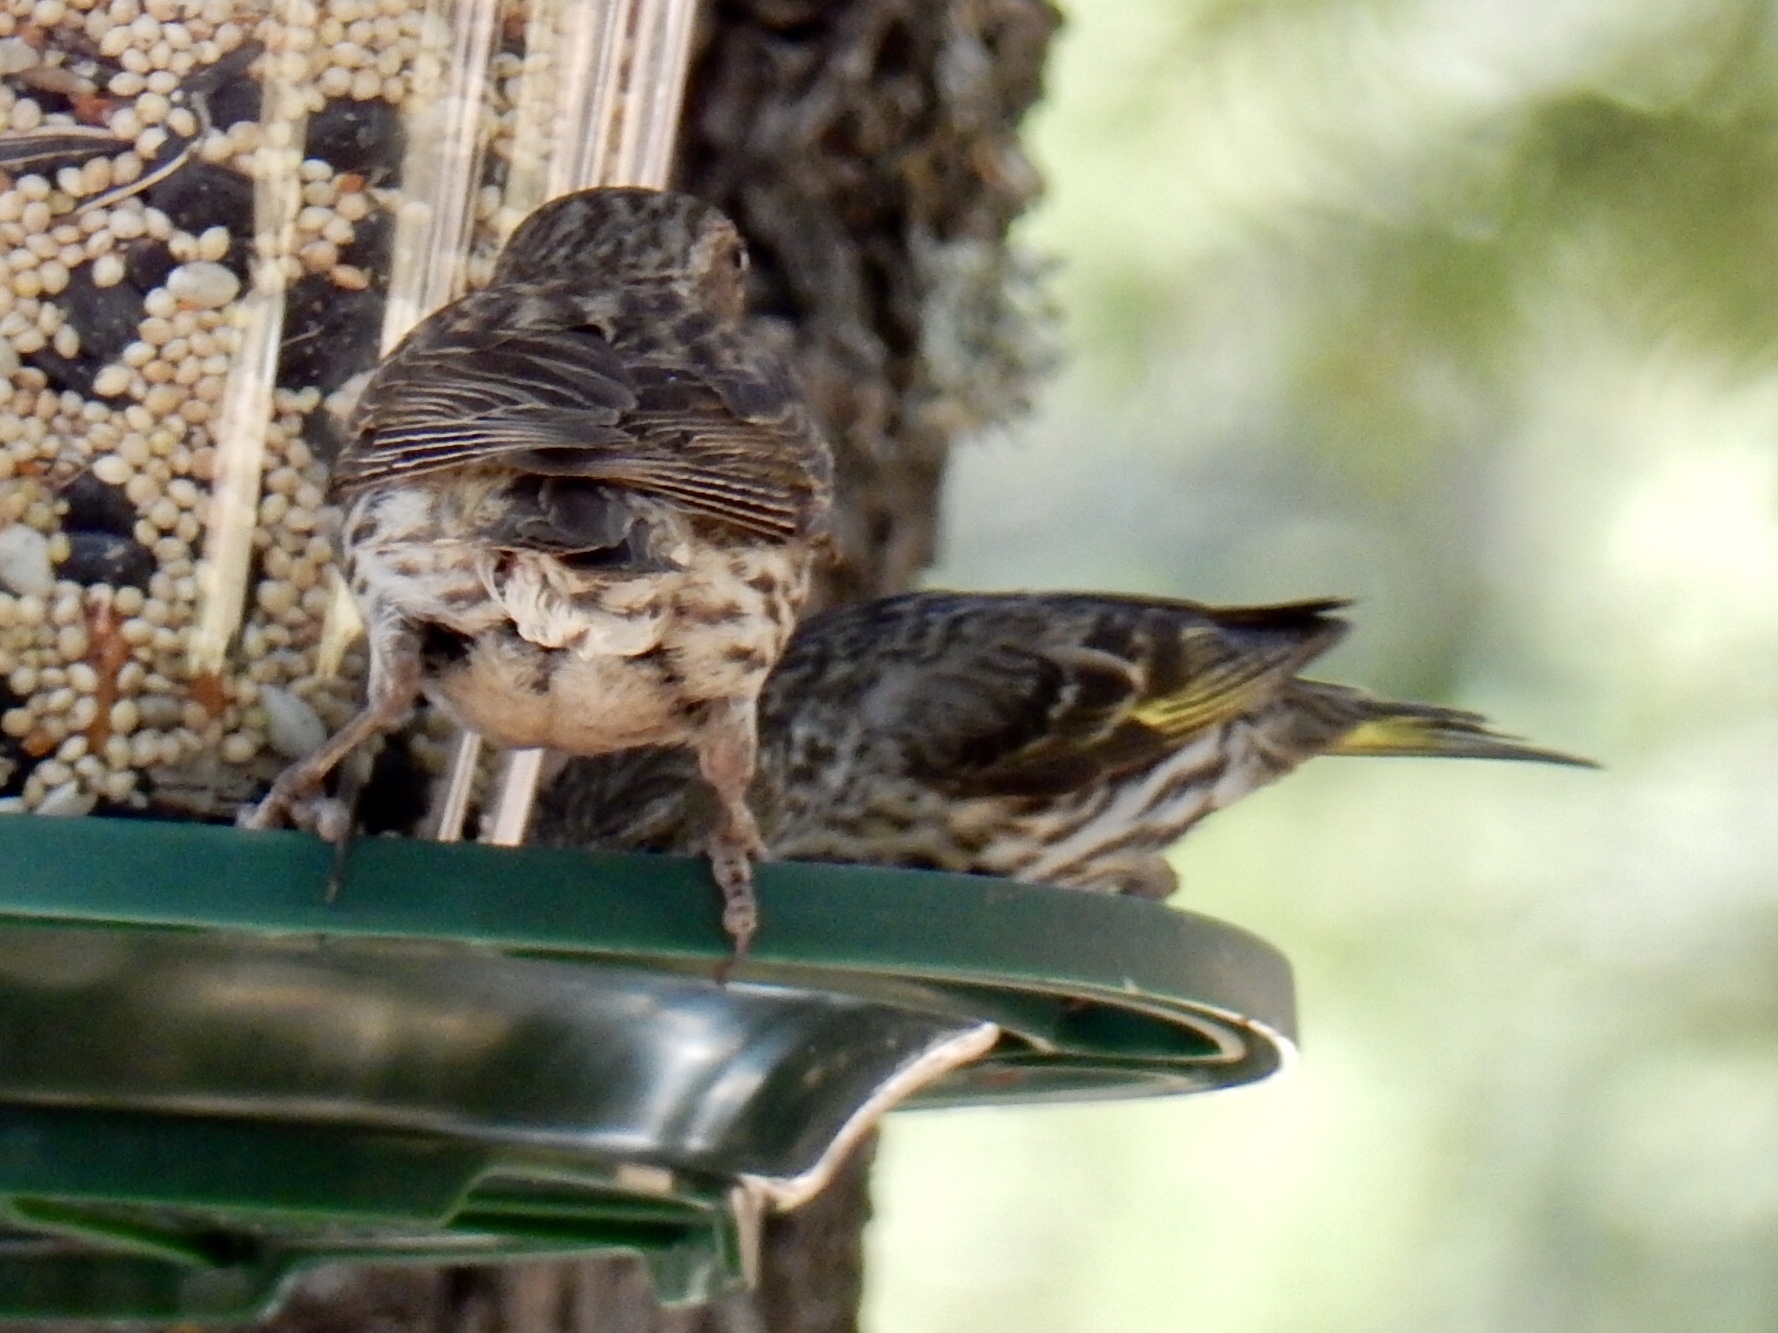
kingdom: Animalia
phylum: Chordata
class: Aves
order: Passeriformes
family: Fringillidae
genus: Spinus
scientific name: Spinus pinus
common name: Pine siskin
